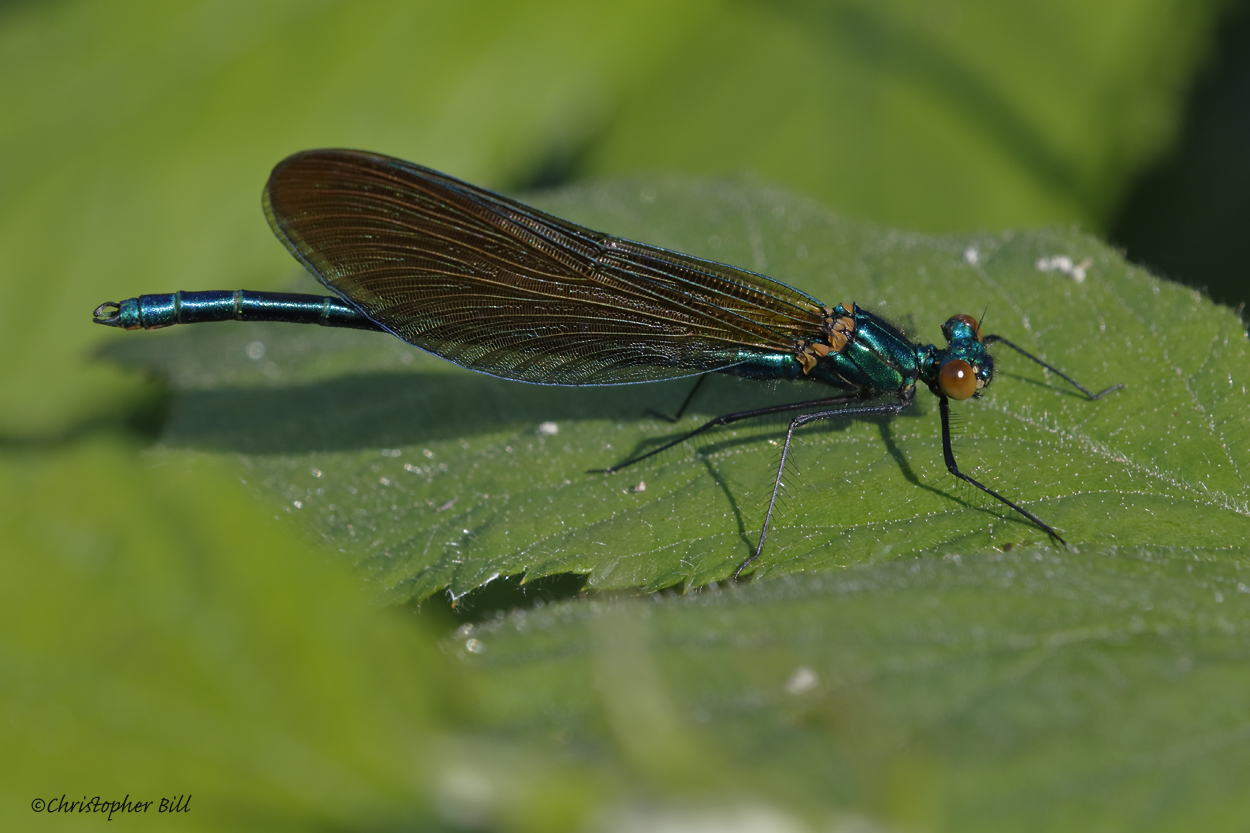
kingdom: Animalia
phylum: Arthropoda
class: Insecta
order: Odonata
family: Calopterygidae
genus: Calopteryx
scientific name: Calopteryx virgo
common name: Beautiful demoiselle
